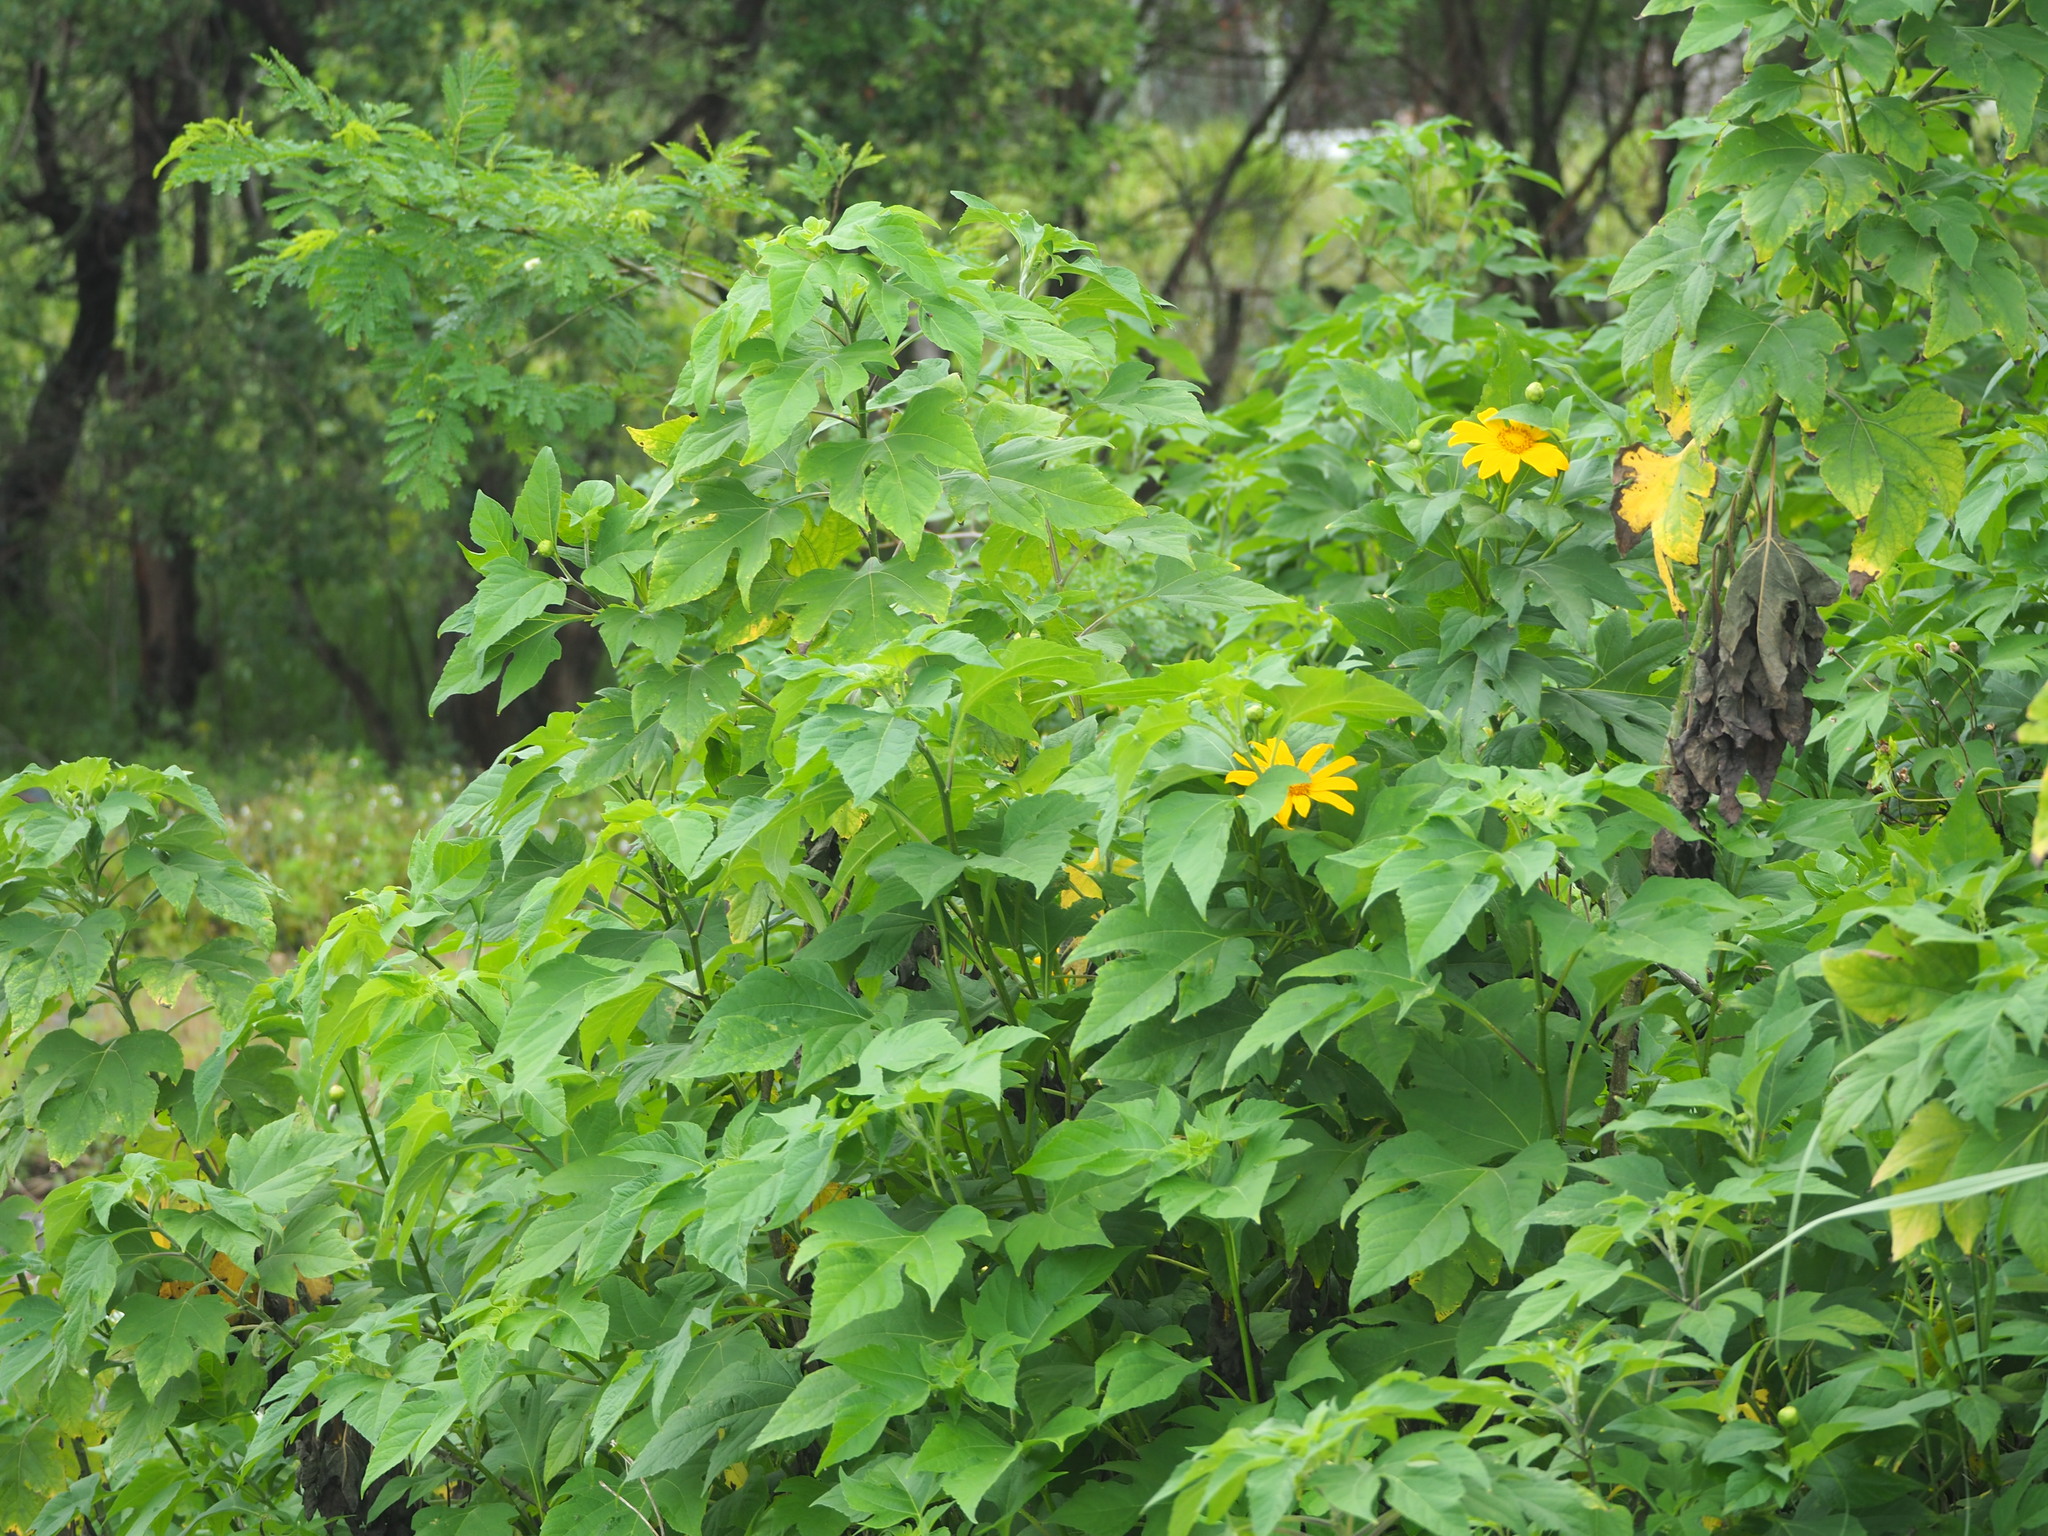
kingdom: Plantae
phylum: Tracheophyta
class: Magnoliopsida
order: Asterales
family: Asteraceae
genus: Tithonia
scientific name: Tithonia diversifolia
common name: Tree marigold
